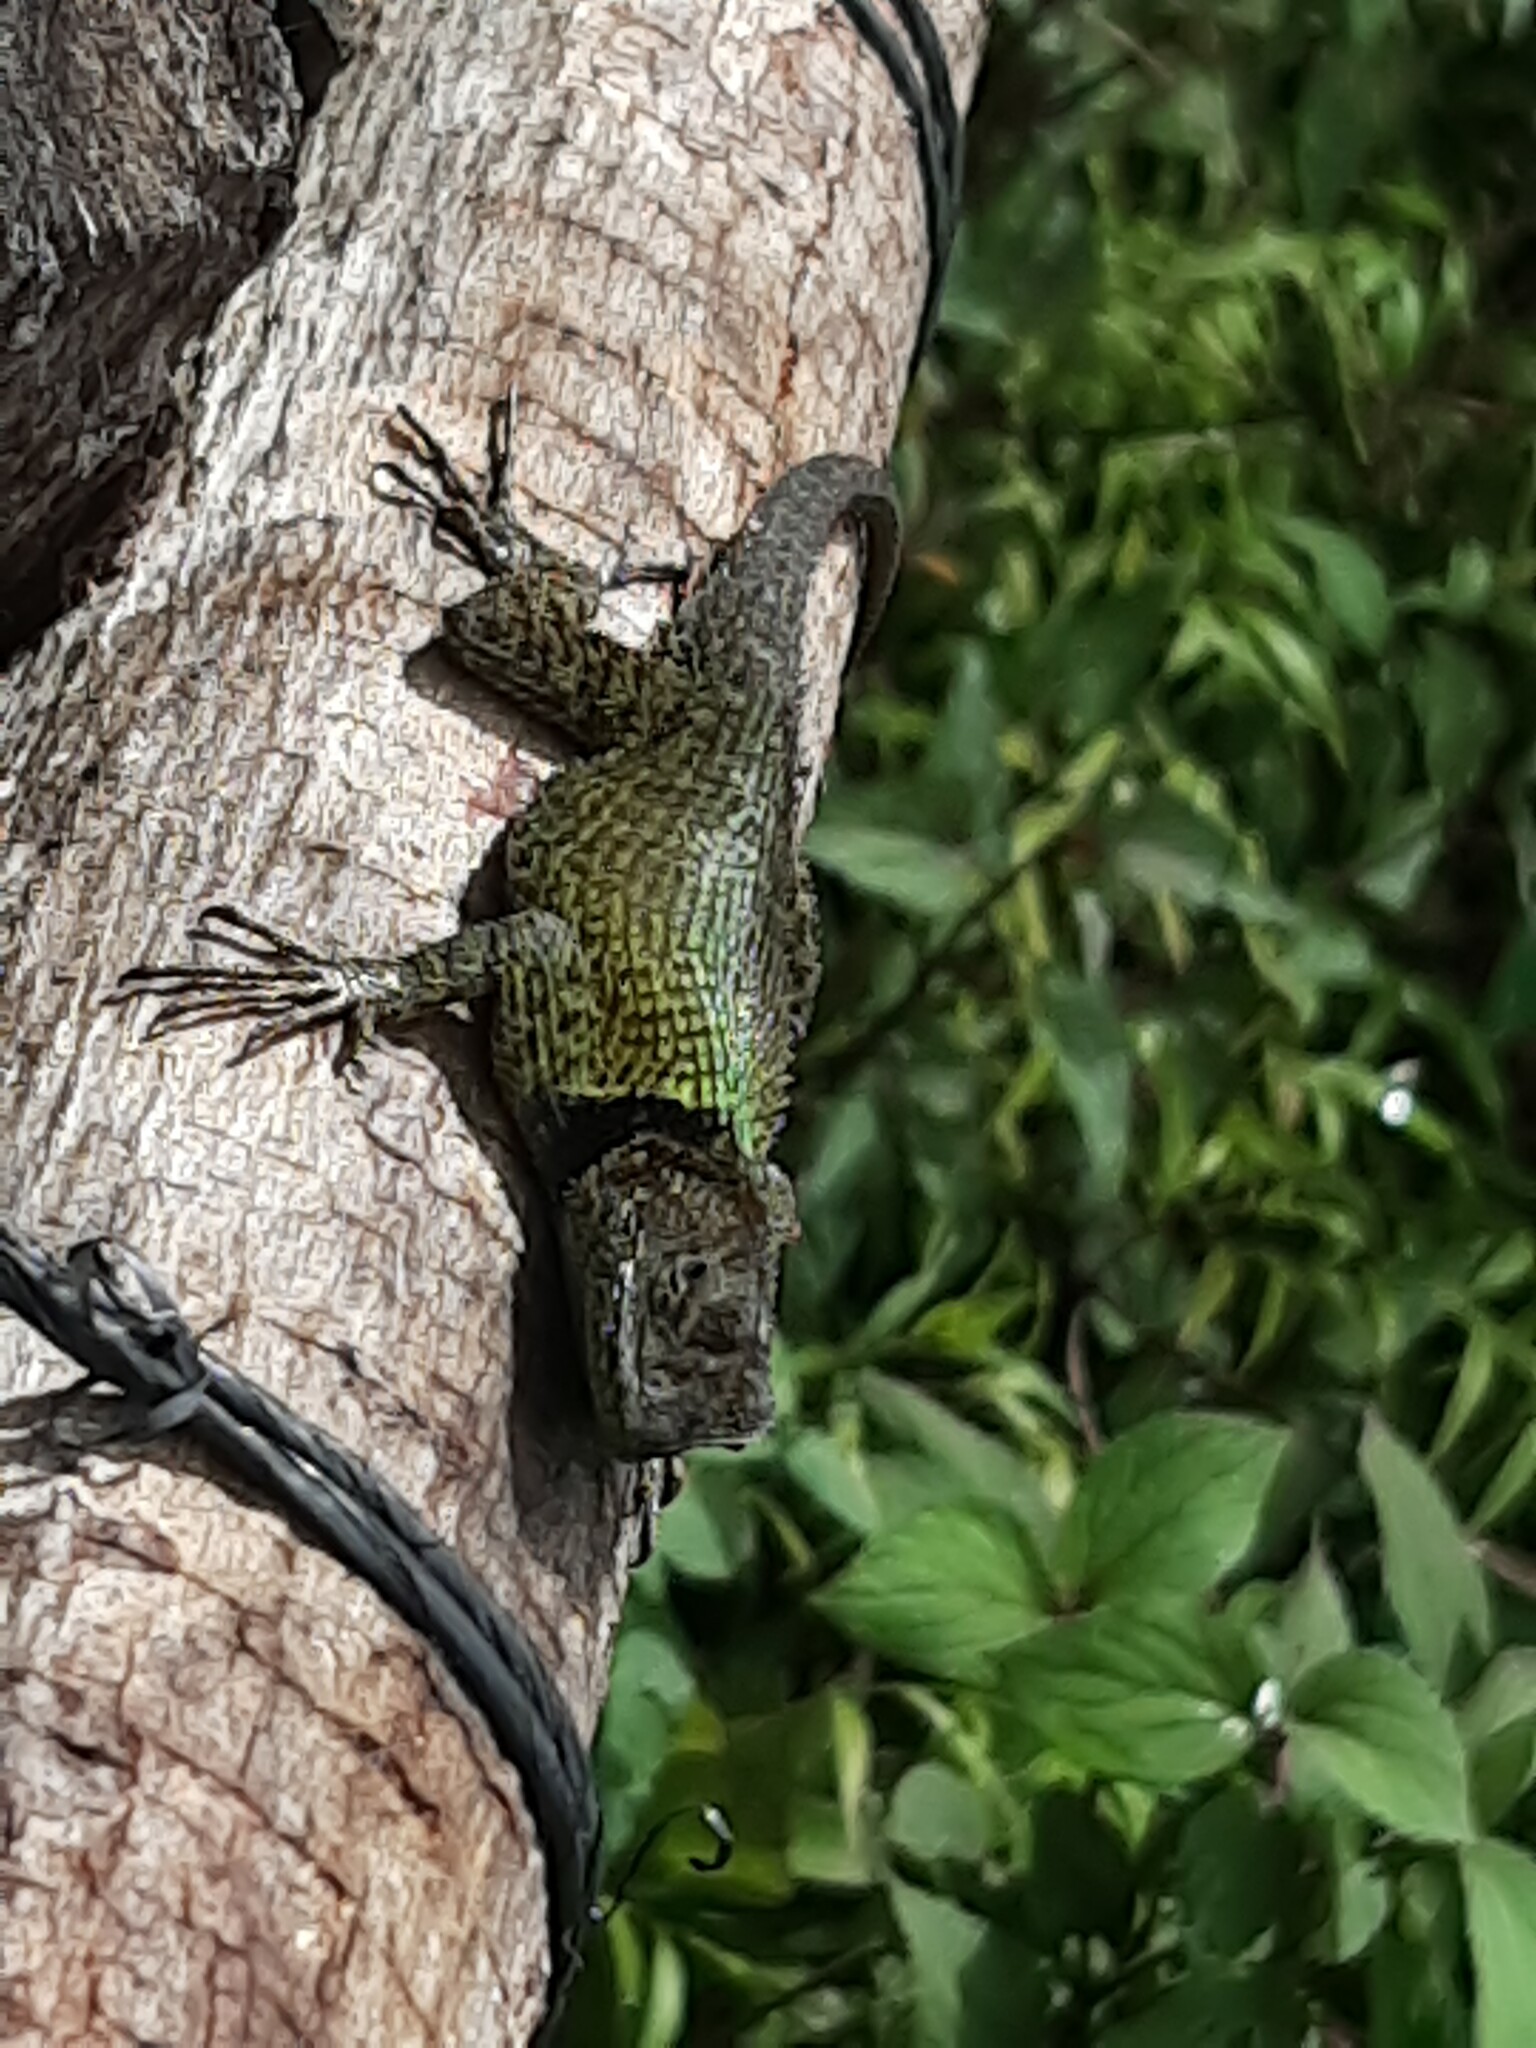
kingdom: Animalia
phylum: Chordata
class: Squamata
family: Phrynosomatidae
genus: Sceloporus
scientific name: Sceloporus taeniocnemis
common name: Guatemalan emerald spiny lizard
